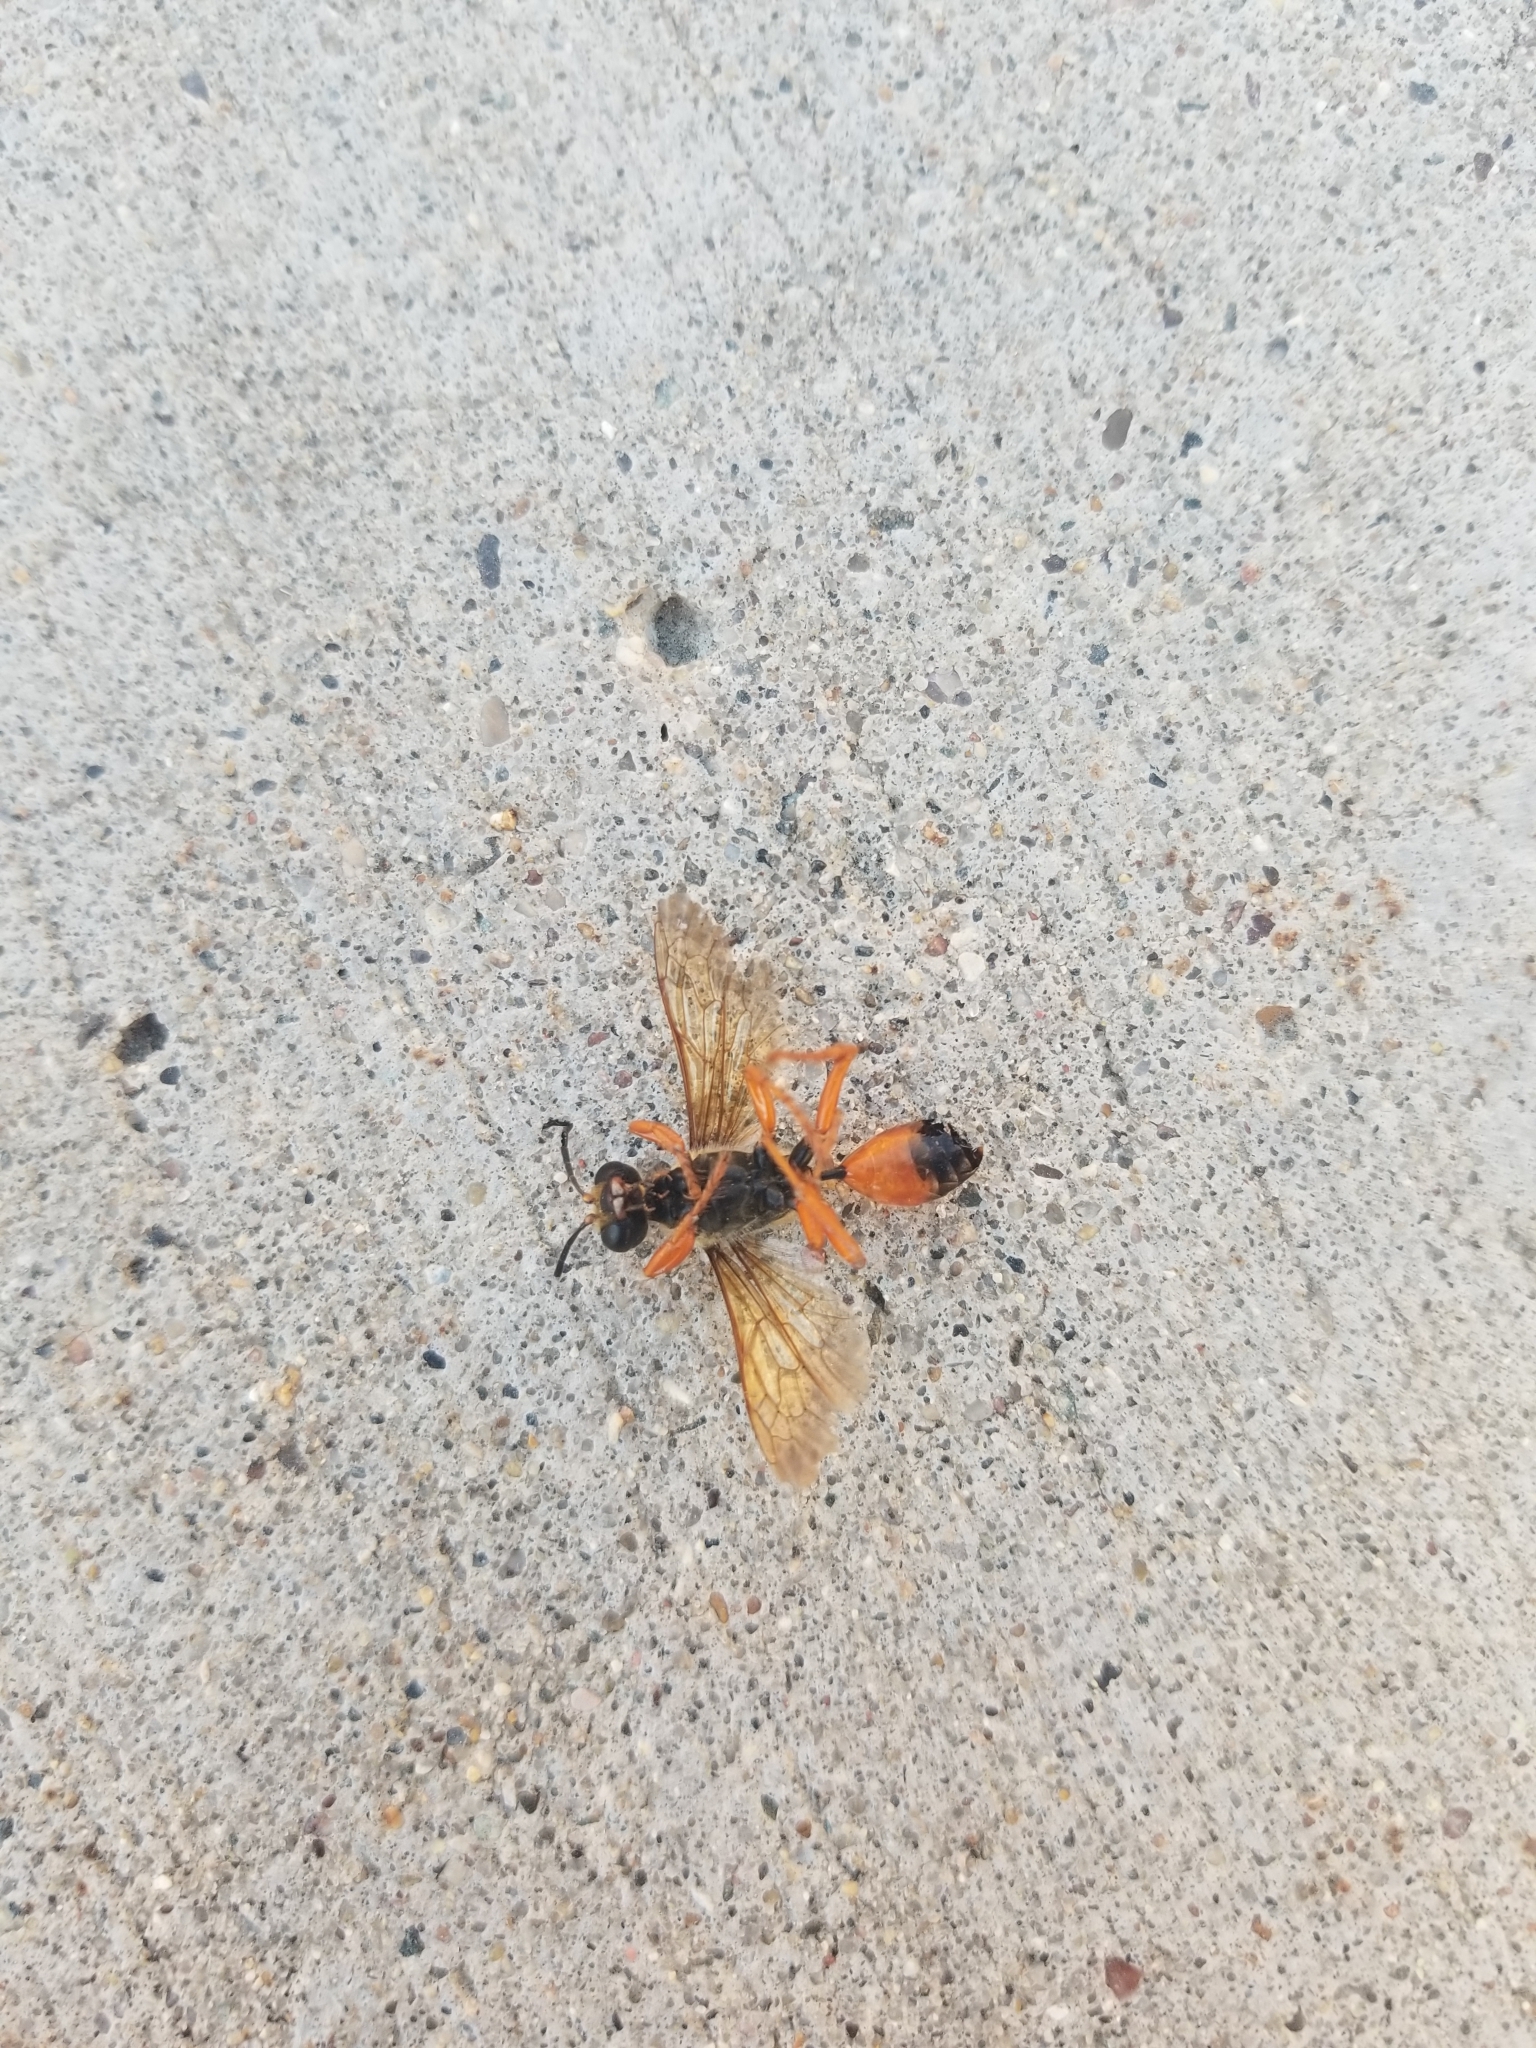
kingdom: Animalia
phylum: Arthropoda
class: Insecta
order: Hymenoptera
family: Sphecidae
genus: Sphex
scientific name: Sphex ichneumoneus
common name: Great golden digger wasp
